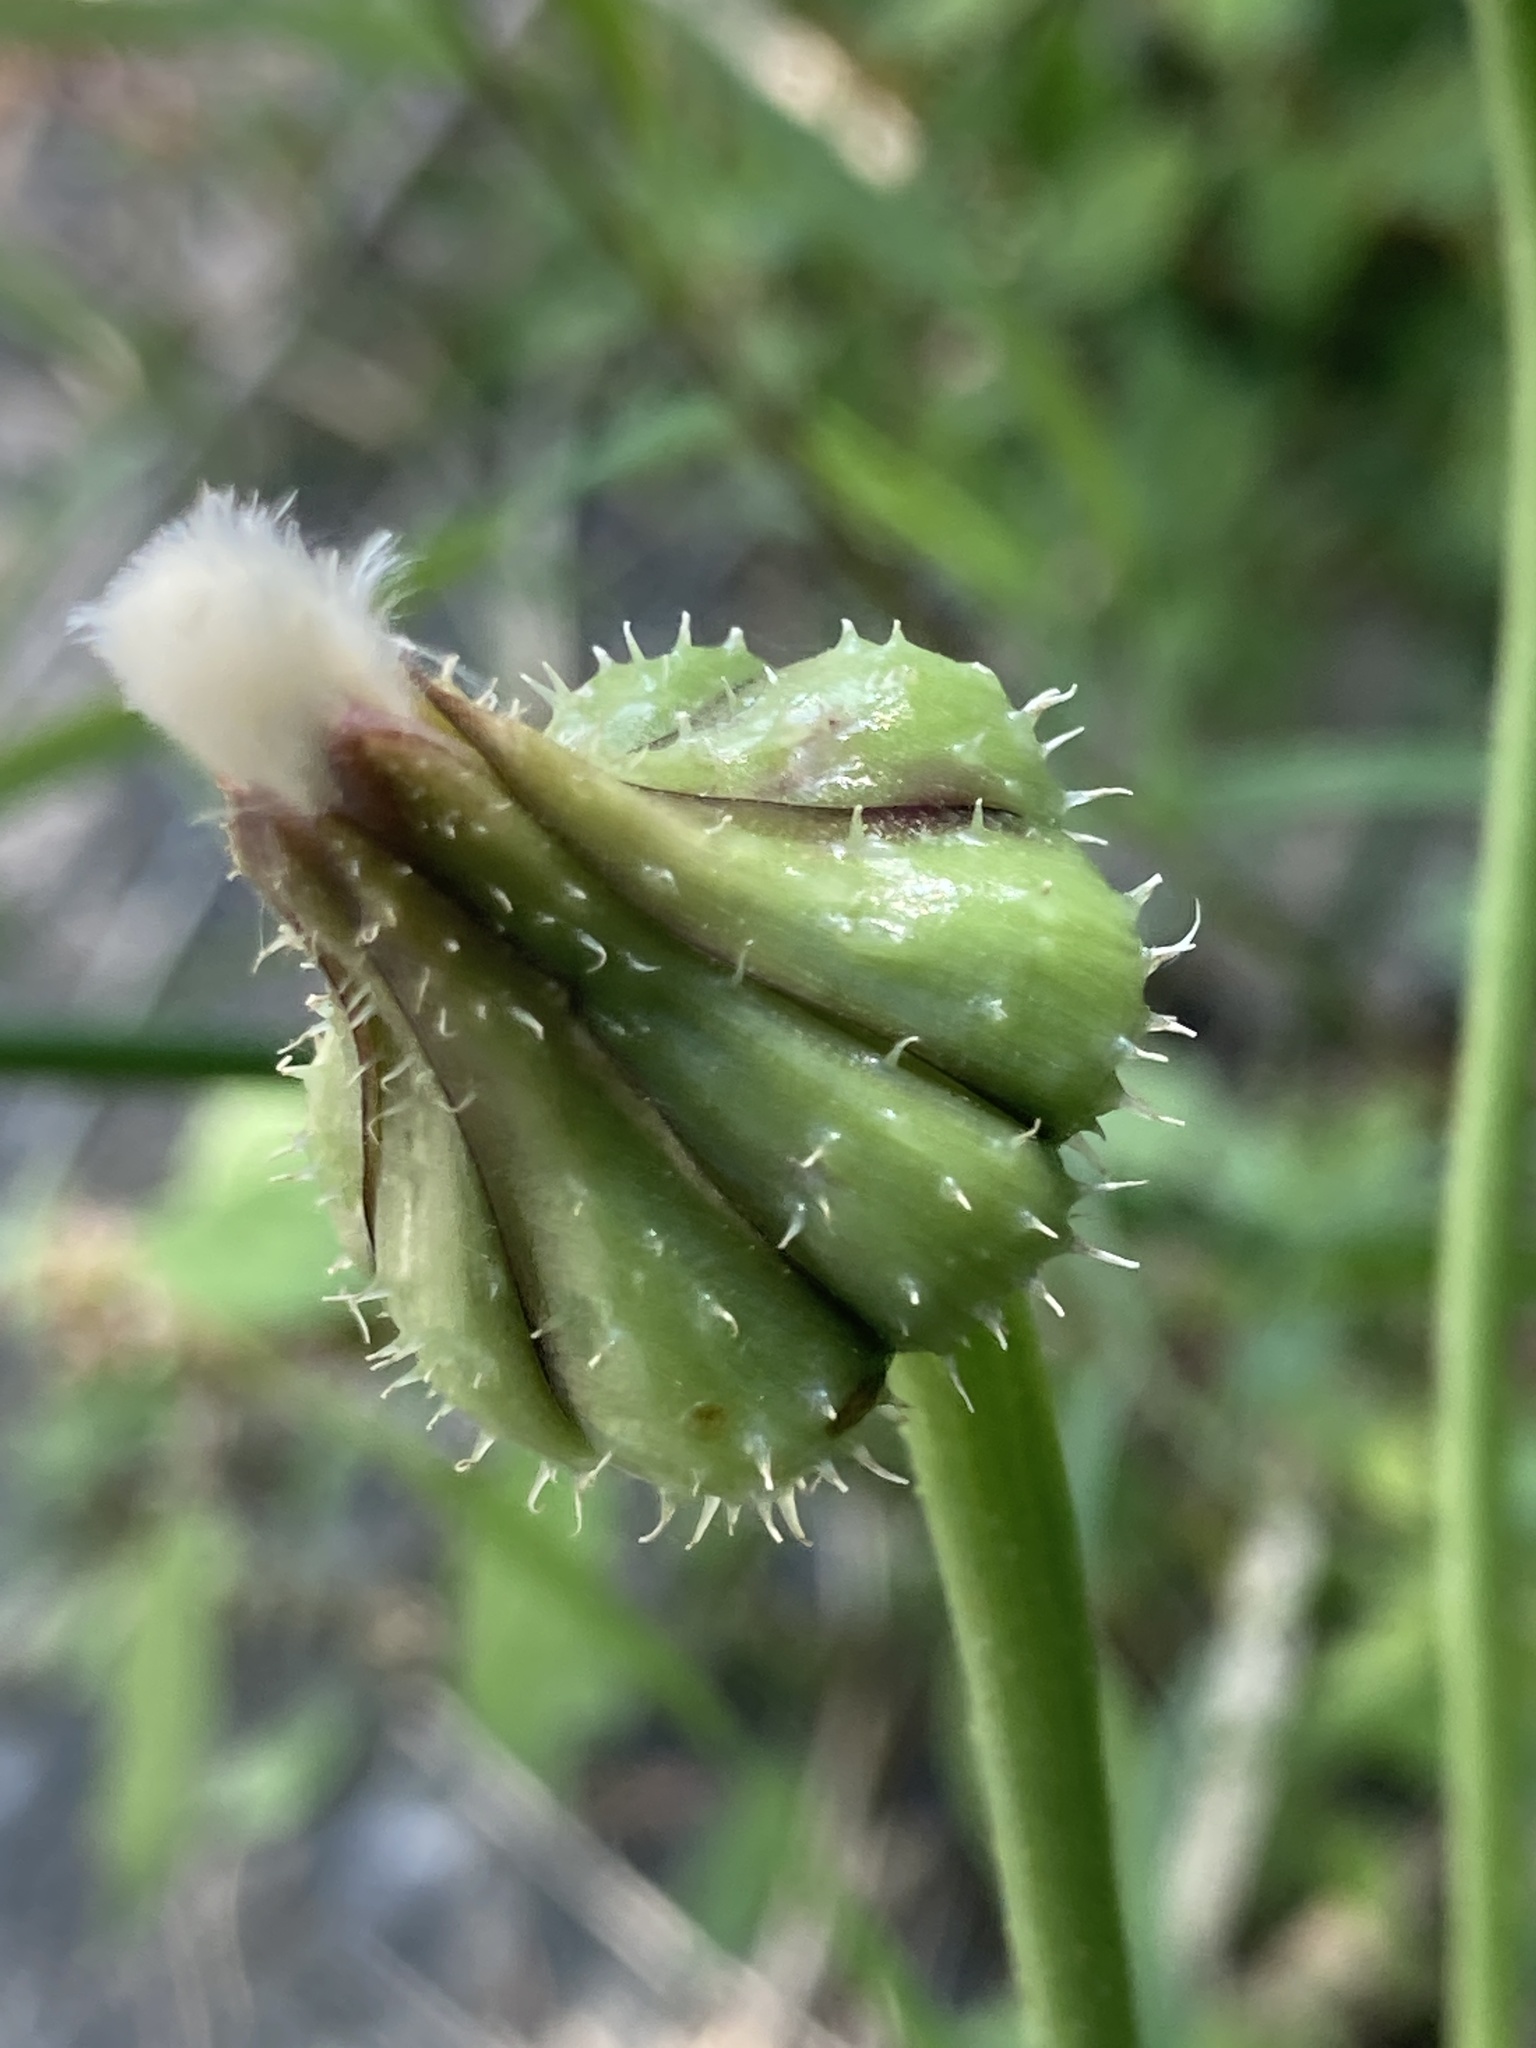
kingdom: Plantae
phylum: Tracheophyta
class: Magnoliopsida
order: Asterales
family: Asteraceae
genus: Urospermum
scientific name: Urospermum picroides
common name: False hawkbit
